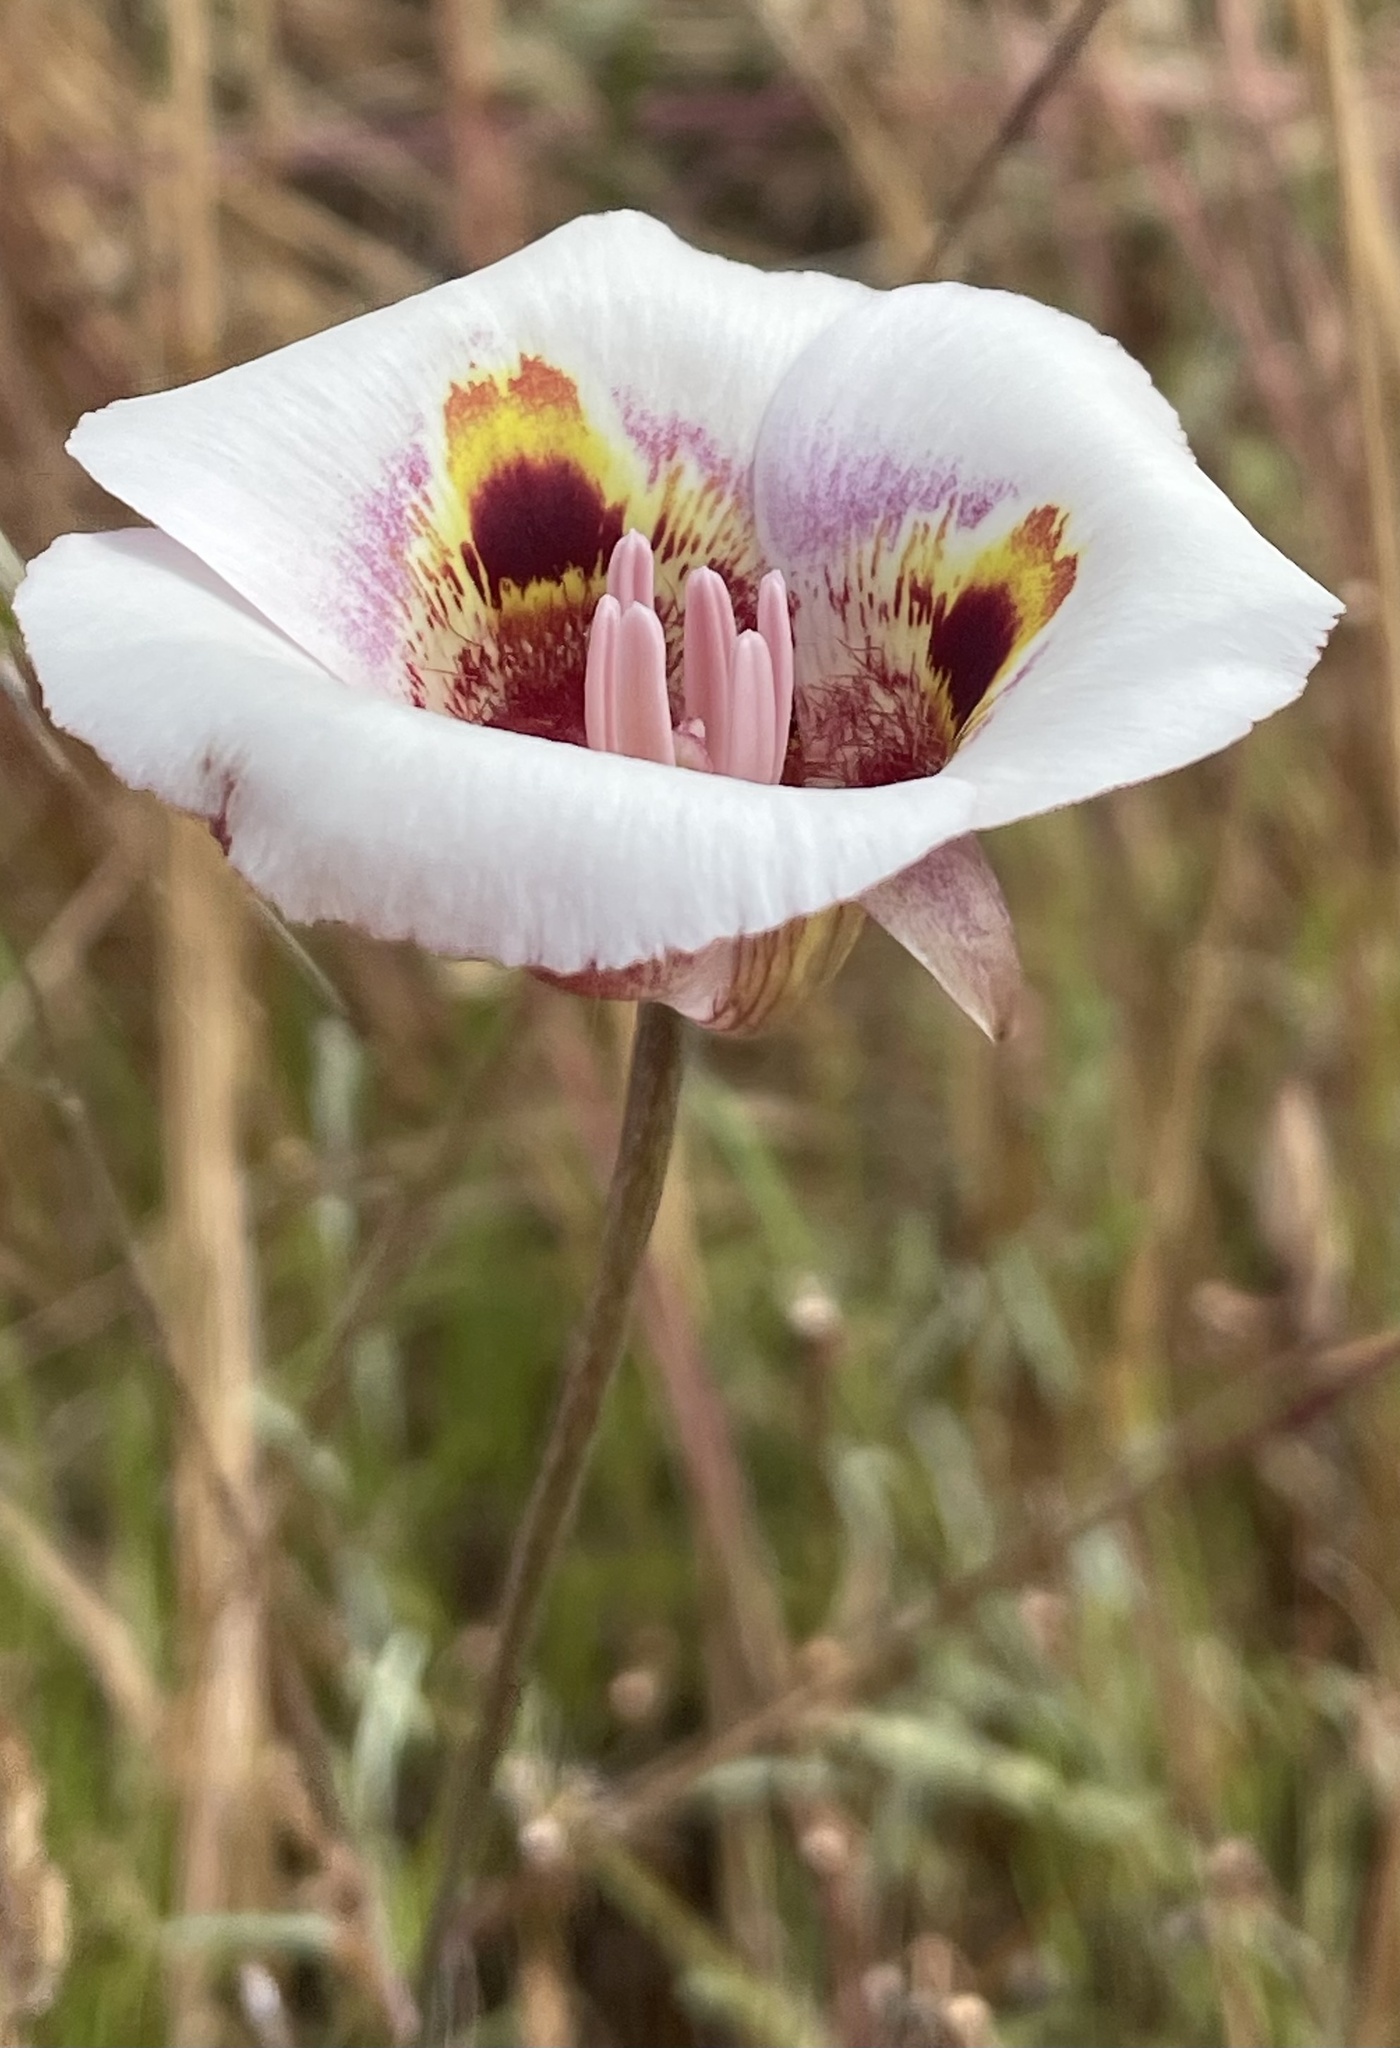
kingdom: Plantae
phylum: Tracheophyta
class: Liliopsida
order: Liliales
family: Liliaceae
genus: Calochortus
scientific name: Calochortus argillosus
